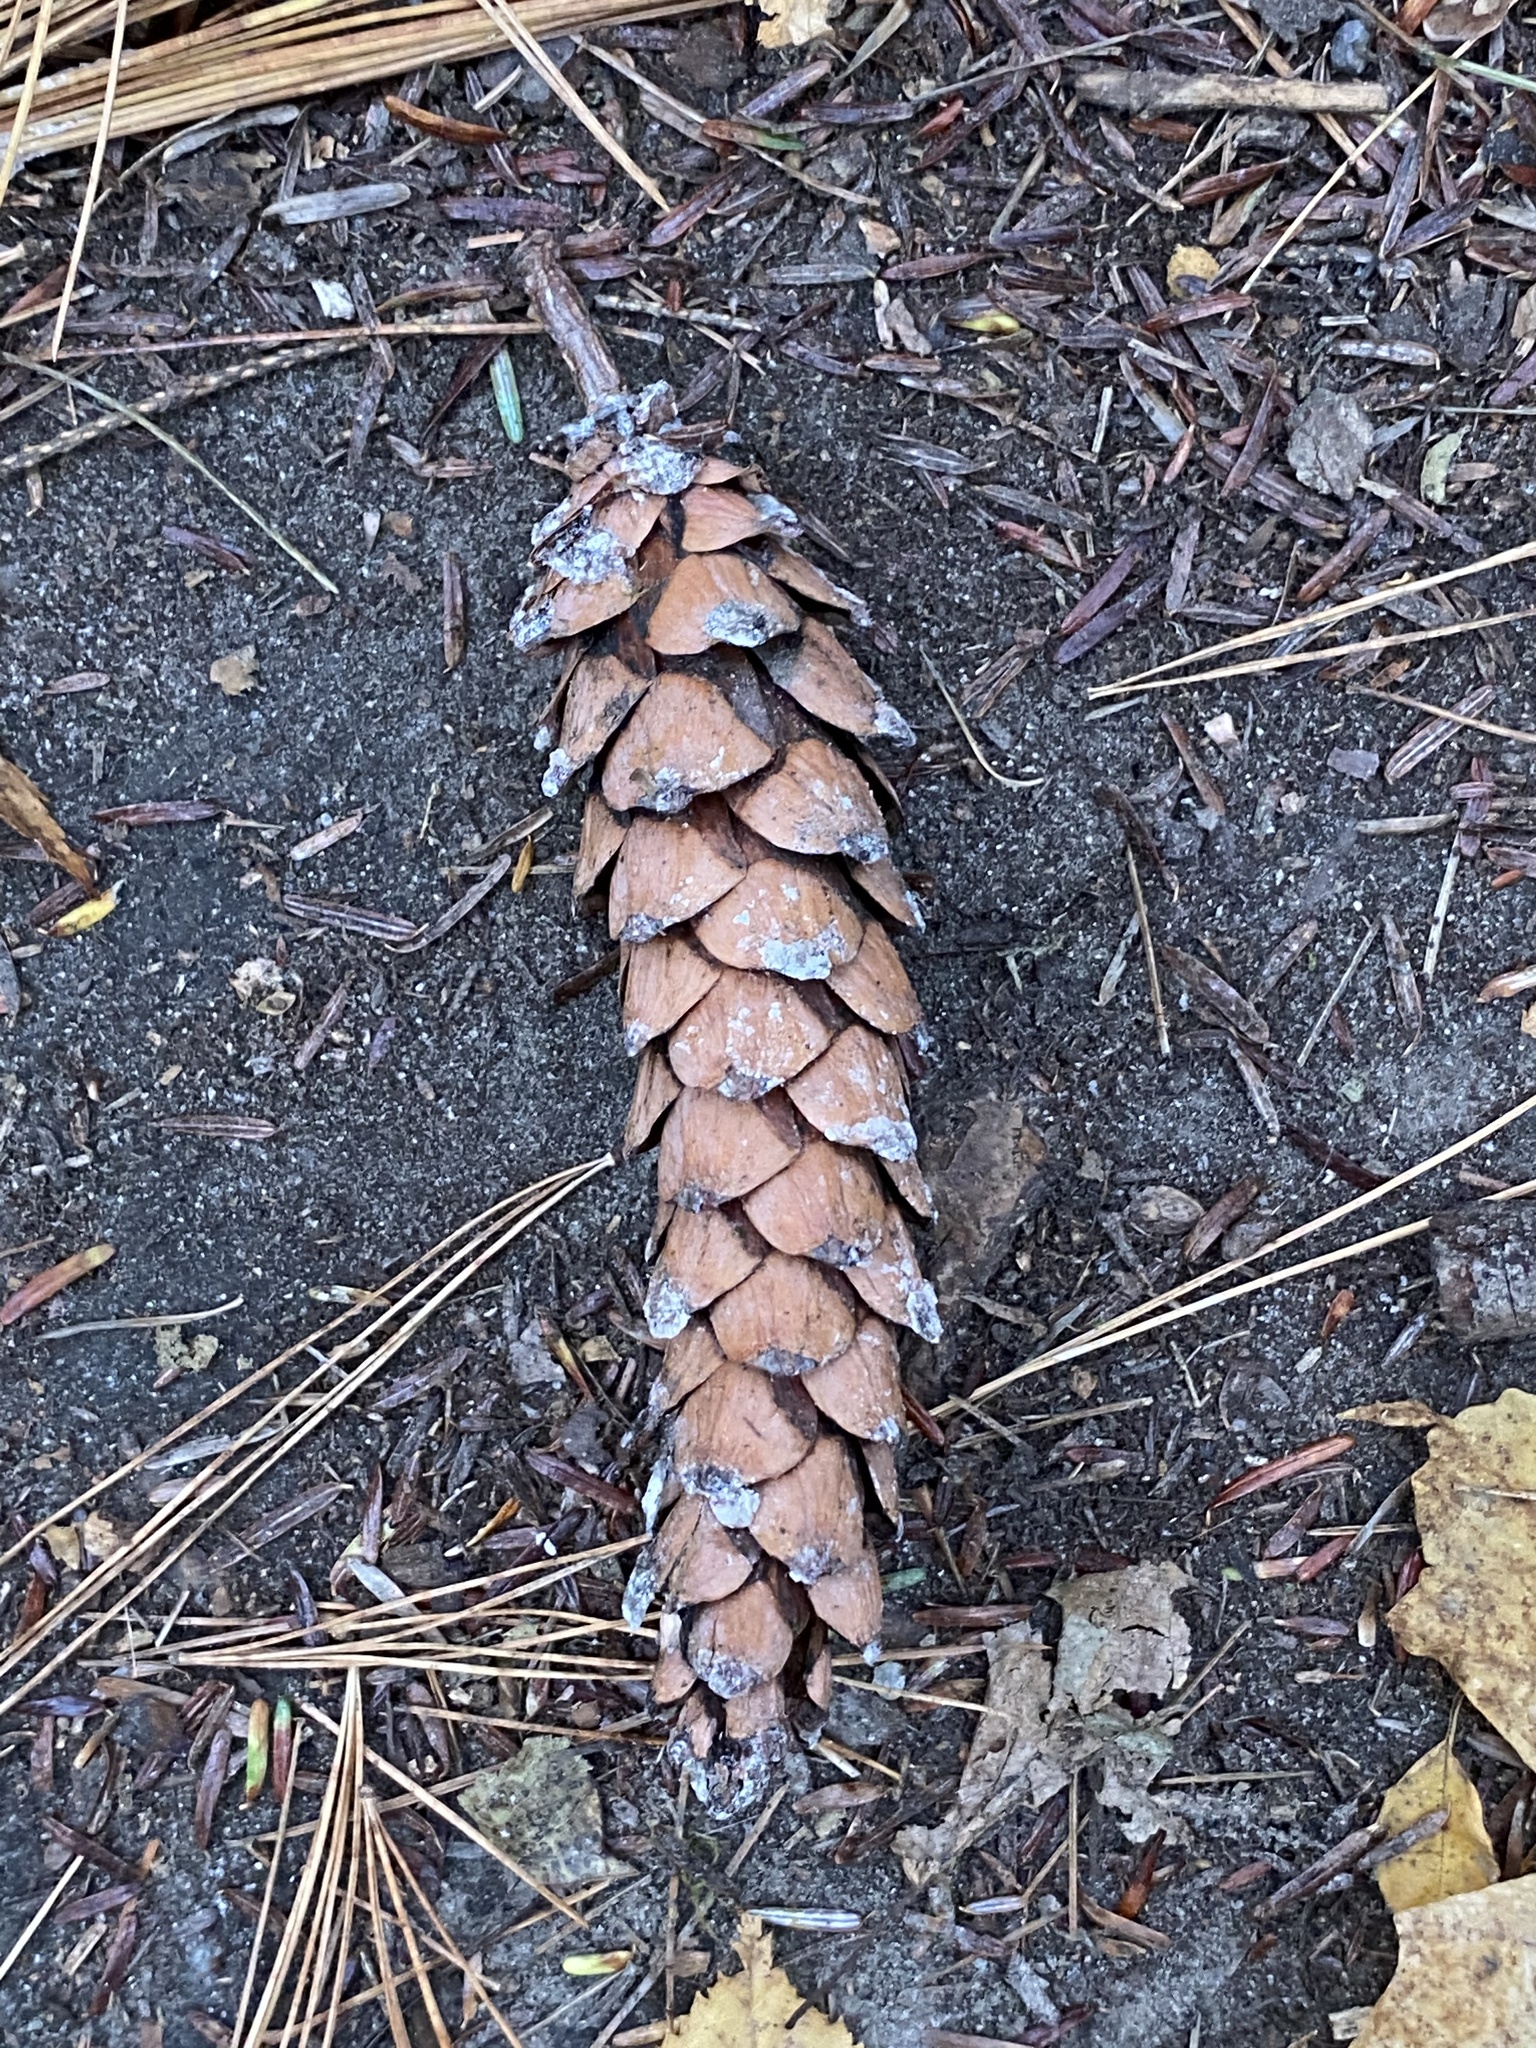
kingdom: Plantae
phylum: Tracheophyta
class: Pinopsida
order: Pinales
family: Pinaceae
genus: Pinus
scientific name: Pinus strobus
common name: Weymouth pine
